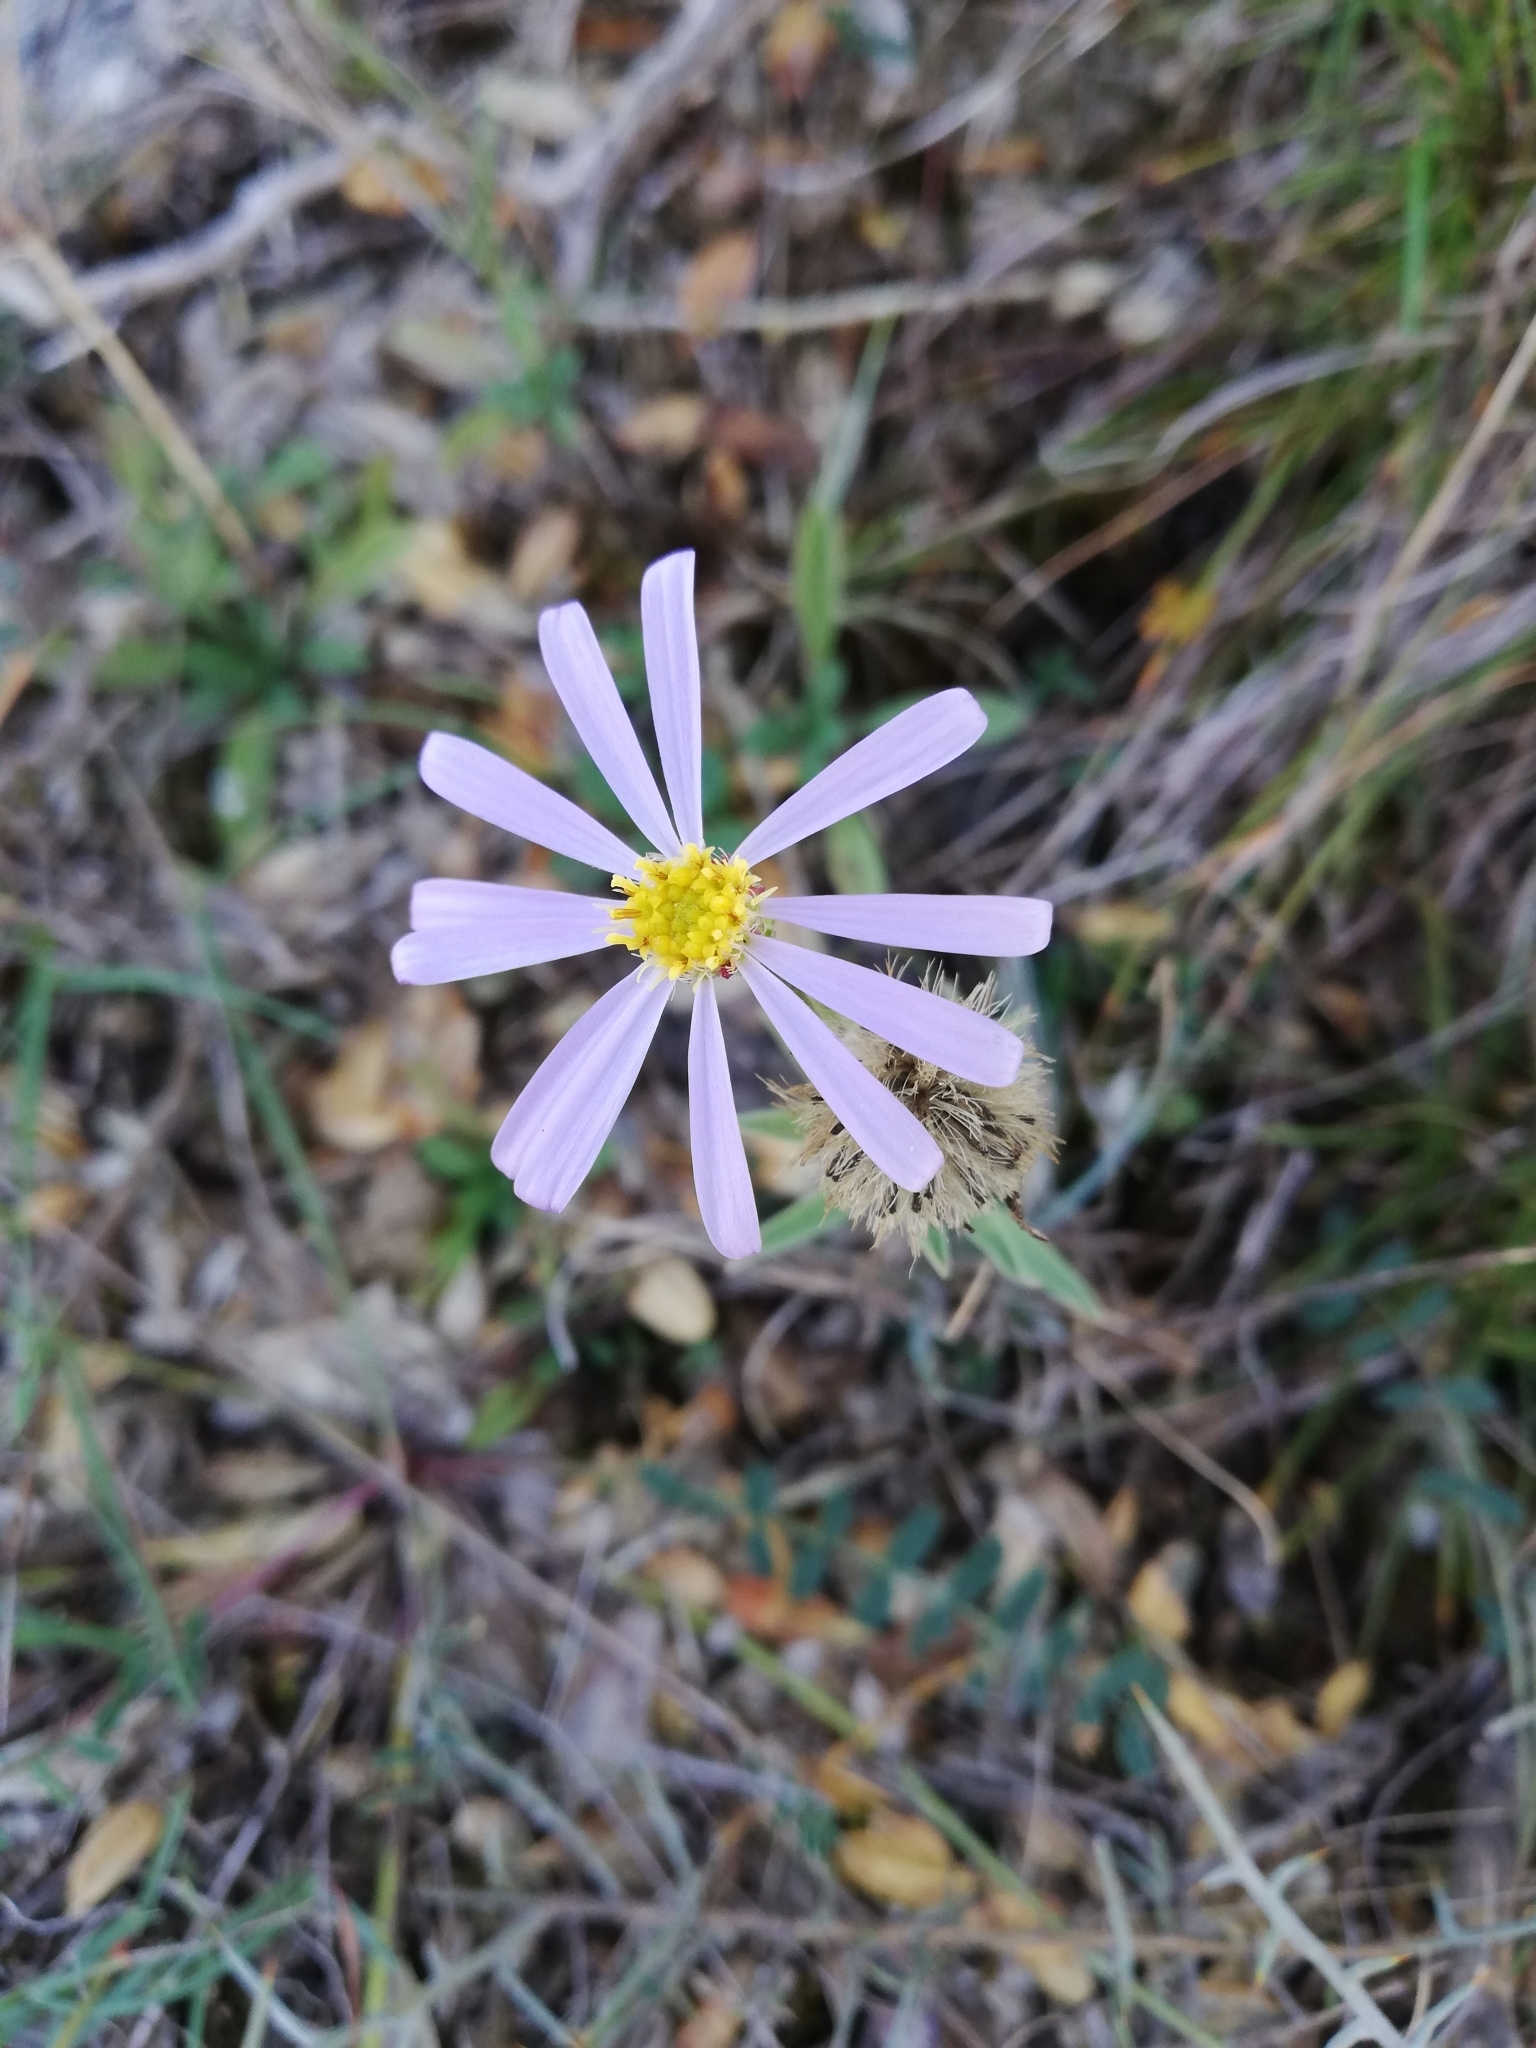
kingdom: Plantae
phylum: Tracheophyta
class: Magnoliopsida
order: Asterales
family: Asteraceae
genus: Aster
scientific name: Aster willkommii
